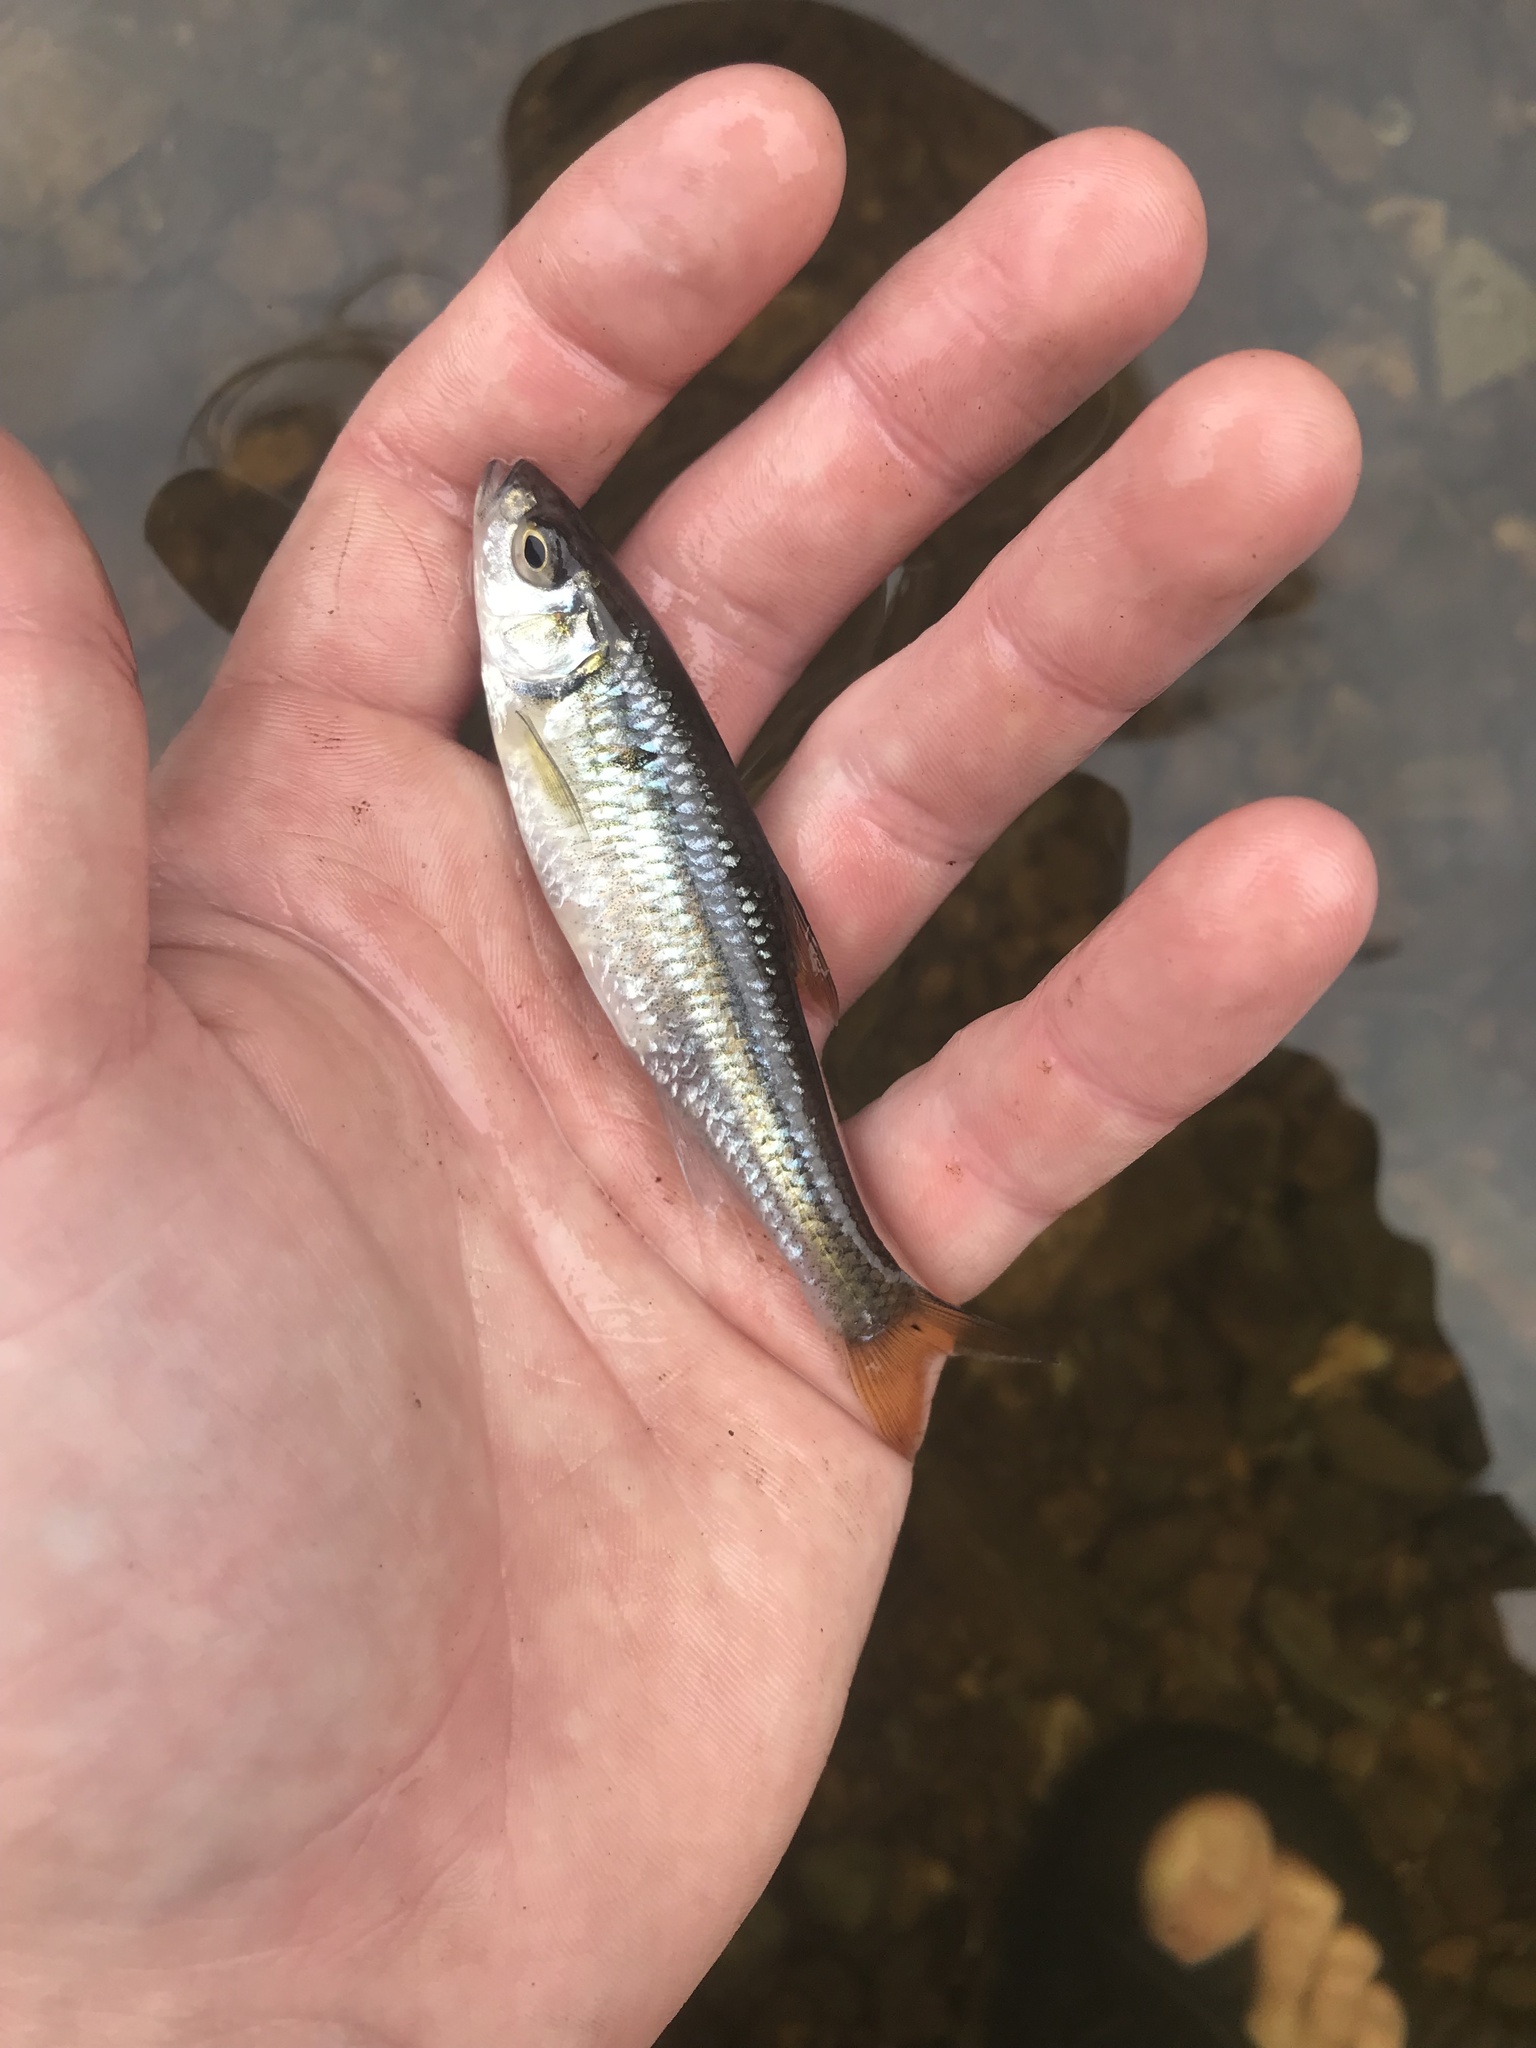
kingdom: Animalia
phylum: Chordata
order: Cypriniformes
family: Cyprinidae
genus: Luxilus
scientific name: Luxilus albeolus
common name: White shiner
